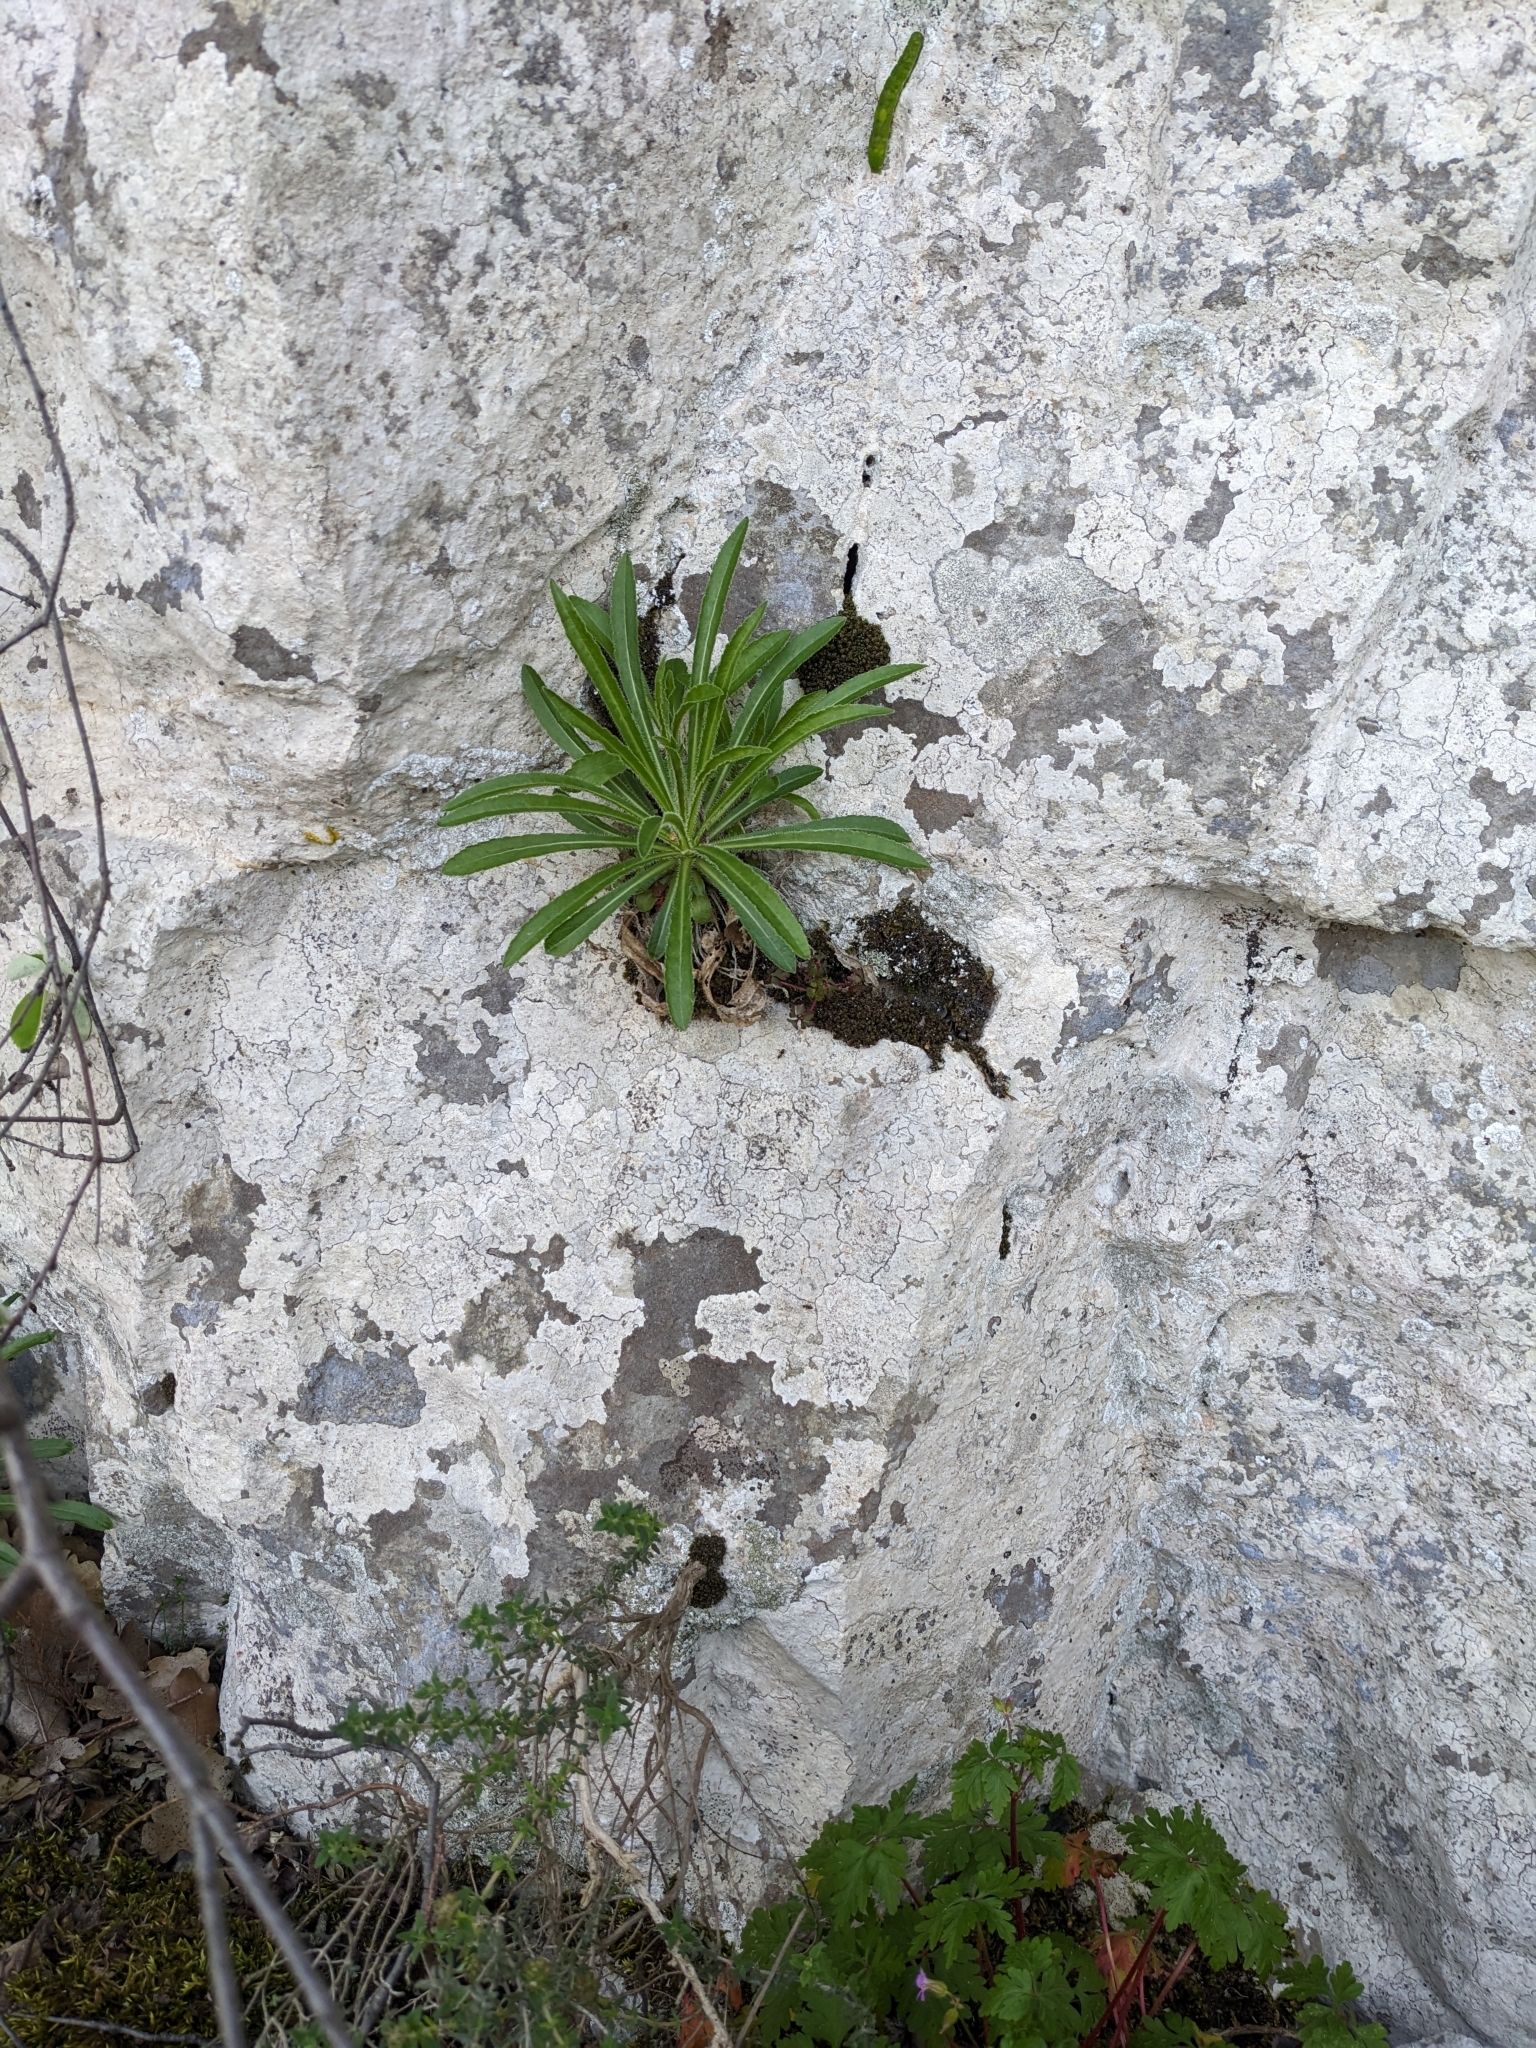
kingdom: Plantae
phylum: Tracheophyta
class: Magnoliopsida
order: Asterales
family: Campanulaceae
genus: Campanula
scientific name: Campanula speciosa
